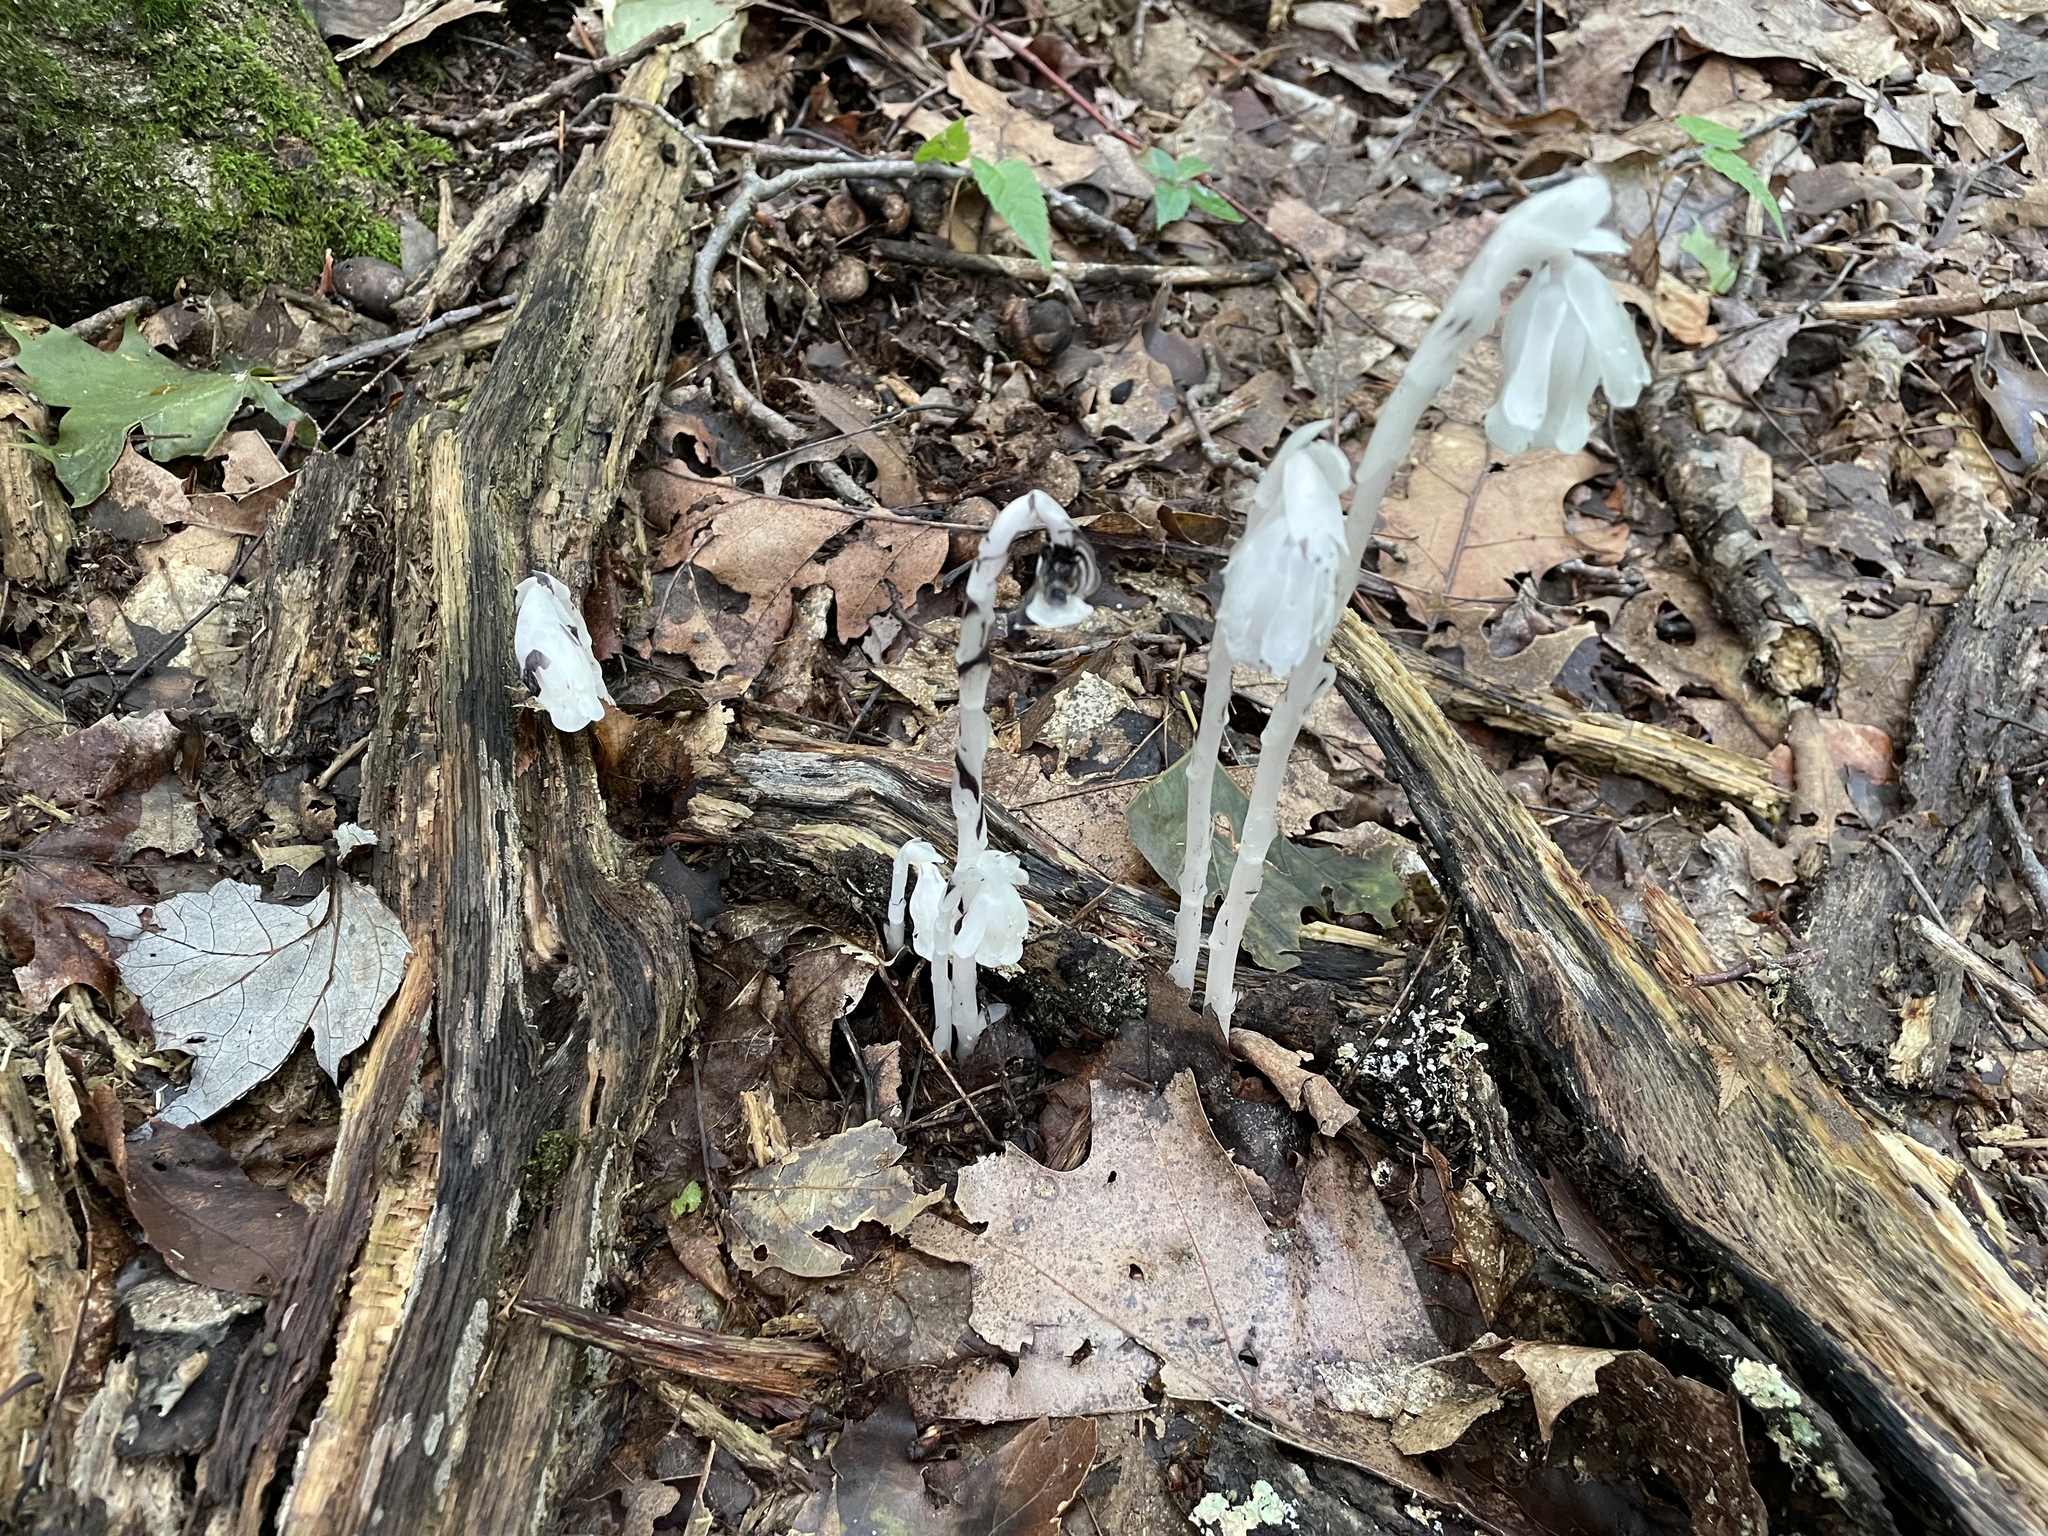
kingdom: Plantae
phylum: Tracheophyta
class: Magnoliopsida
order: Ericales
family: Ericaceae
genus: Monotropa
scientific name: Monotropa uniflora
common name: Convulsion root
